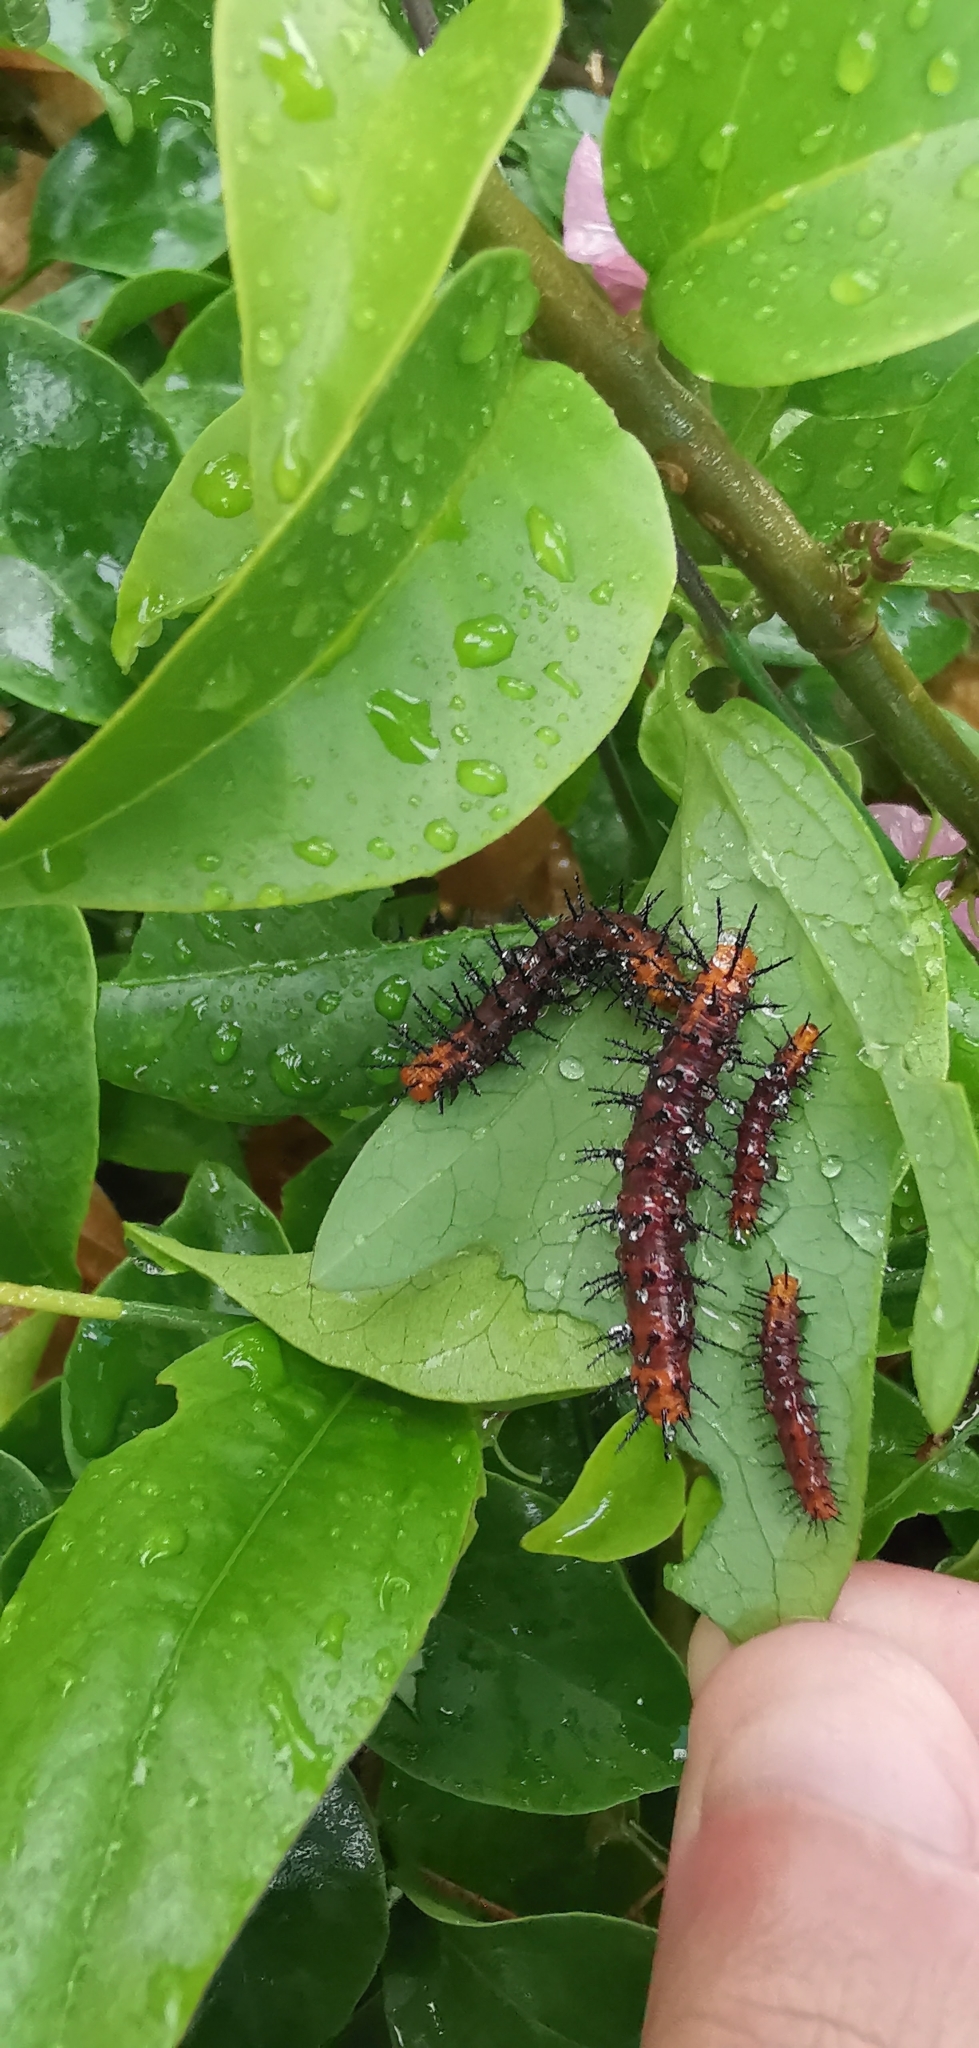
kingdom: Animalia
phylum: Arthropoda
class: Insecta
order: Lepidoptera
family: Nymphalidae
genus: Acraea
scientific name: Acraea terpsicore
